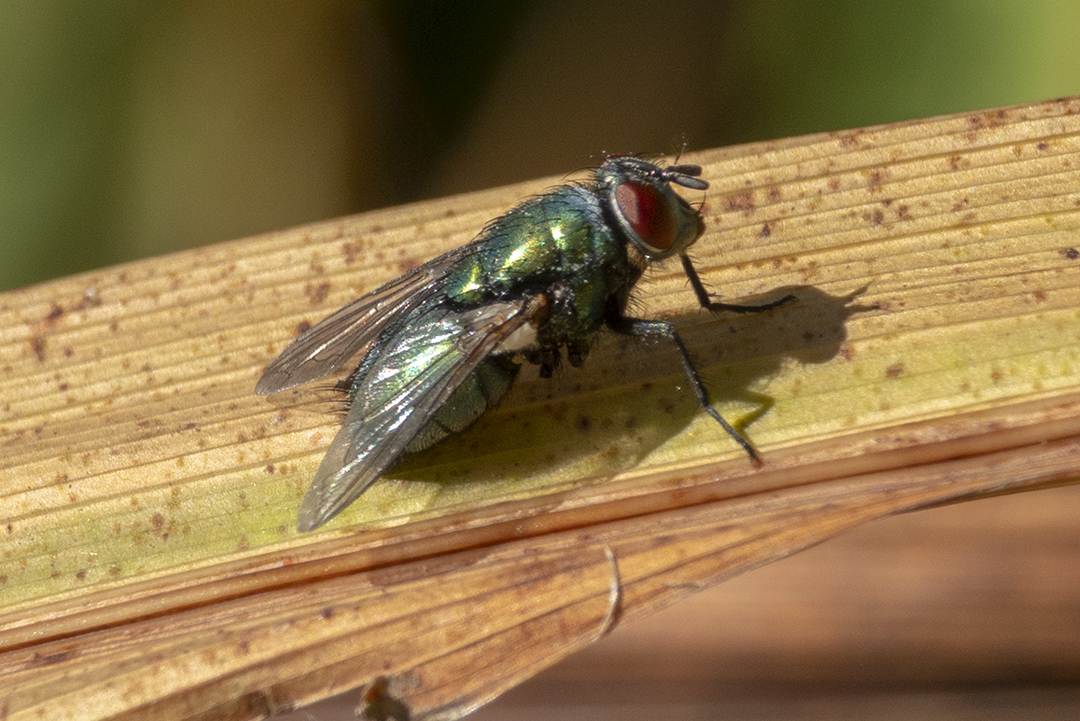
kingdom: Animalia
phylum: Arthropoda
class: Insecta
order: Diptera
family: Calliphoridae
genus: Lucilia
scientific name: Lucilia sericata
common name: Blow fly
